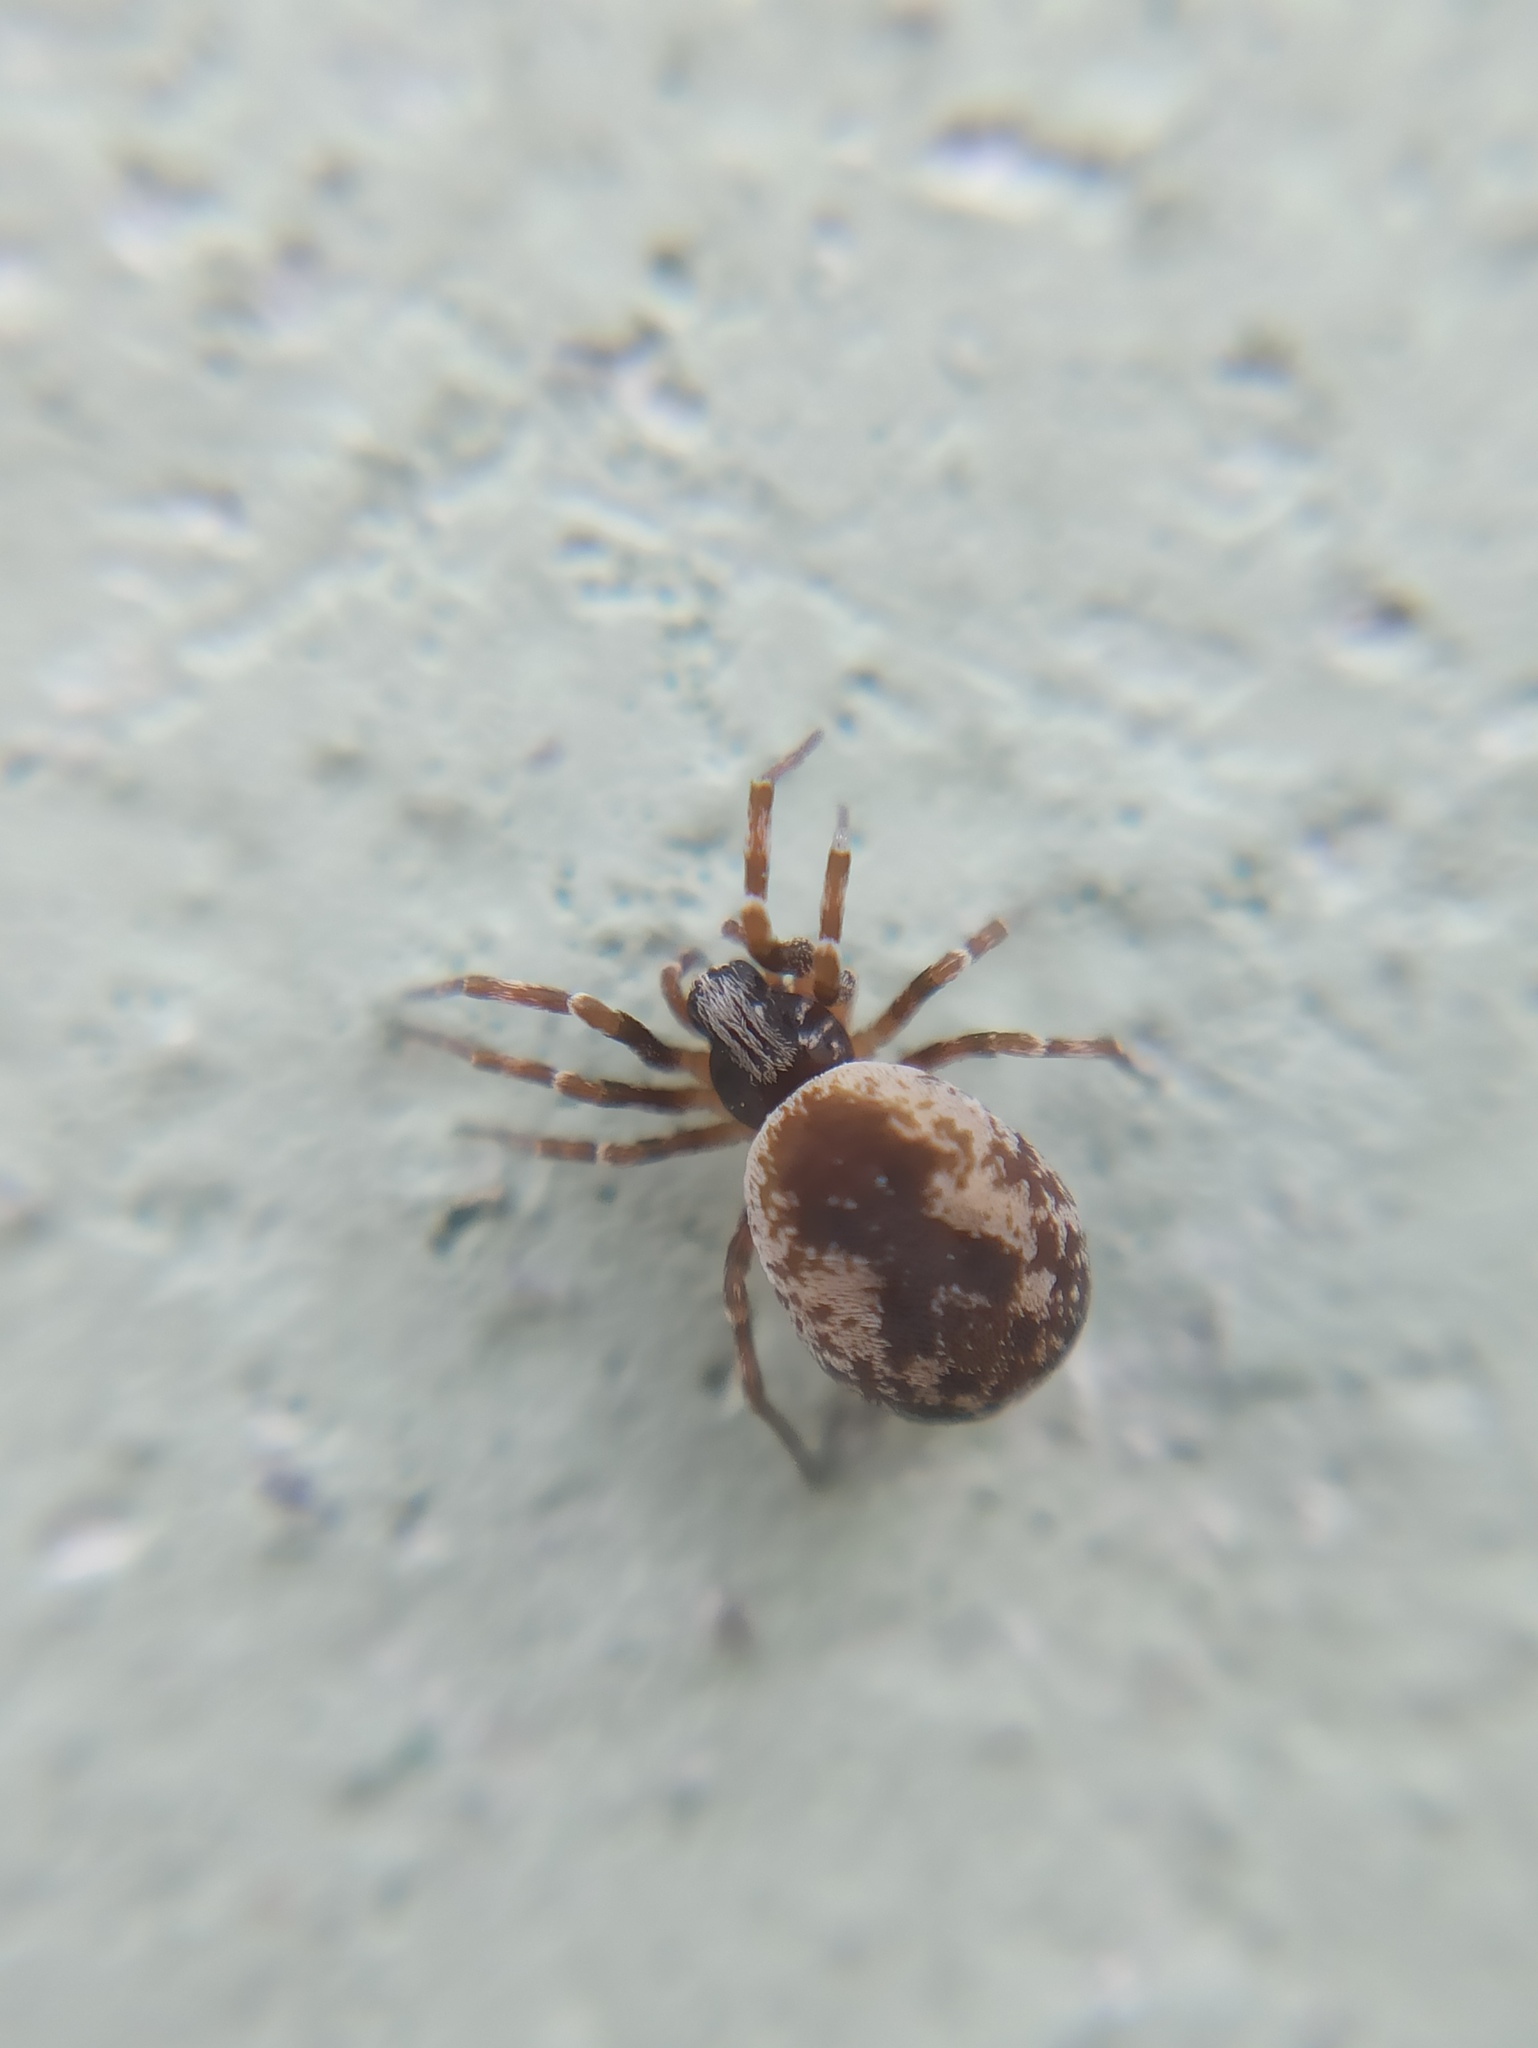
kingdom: Animalia
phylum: Arthropoda
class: Arachnida
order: Araneae
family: Dictynidae
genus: Brigittea
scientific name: Brigittea civica
